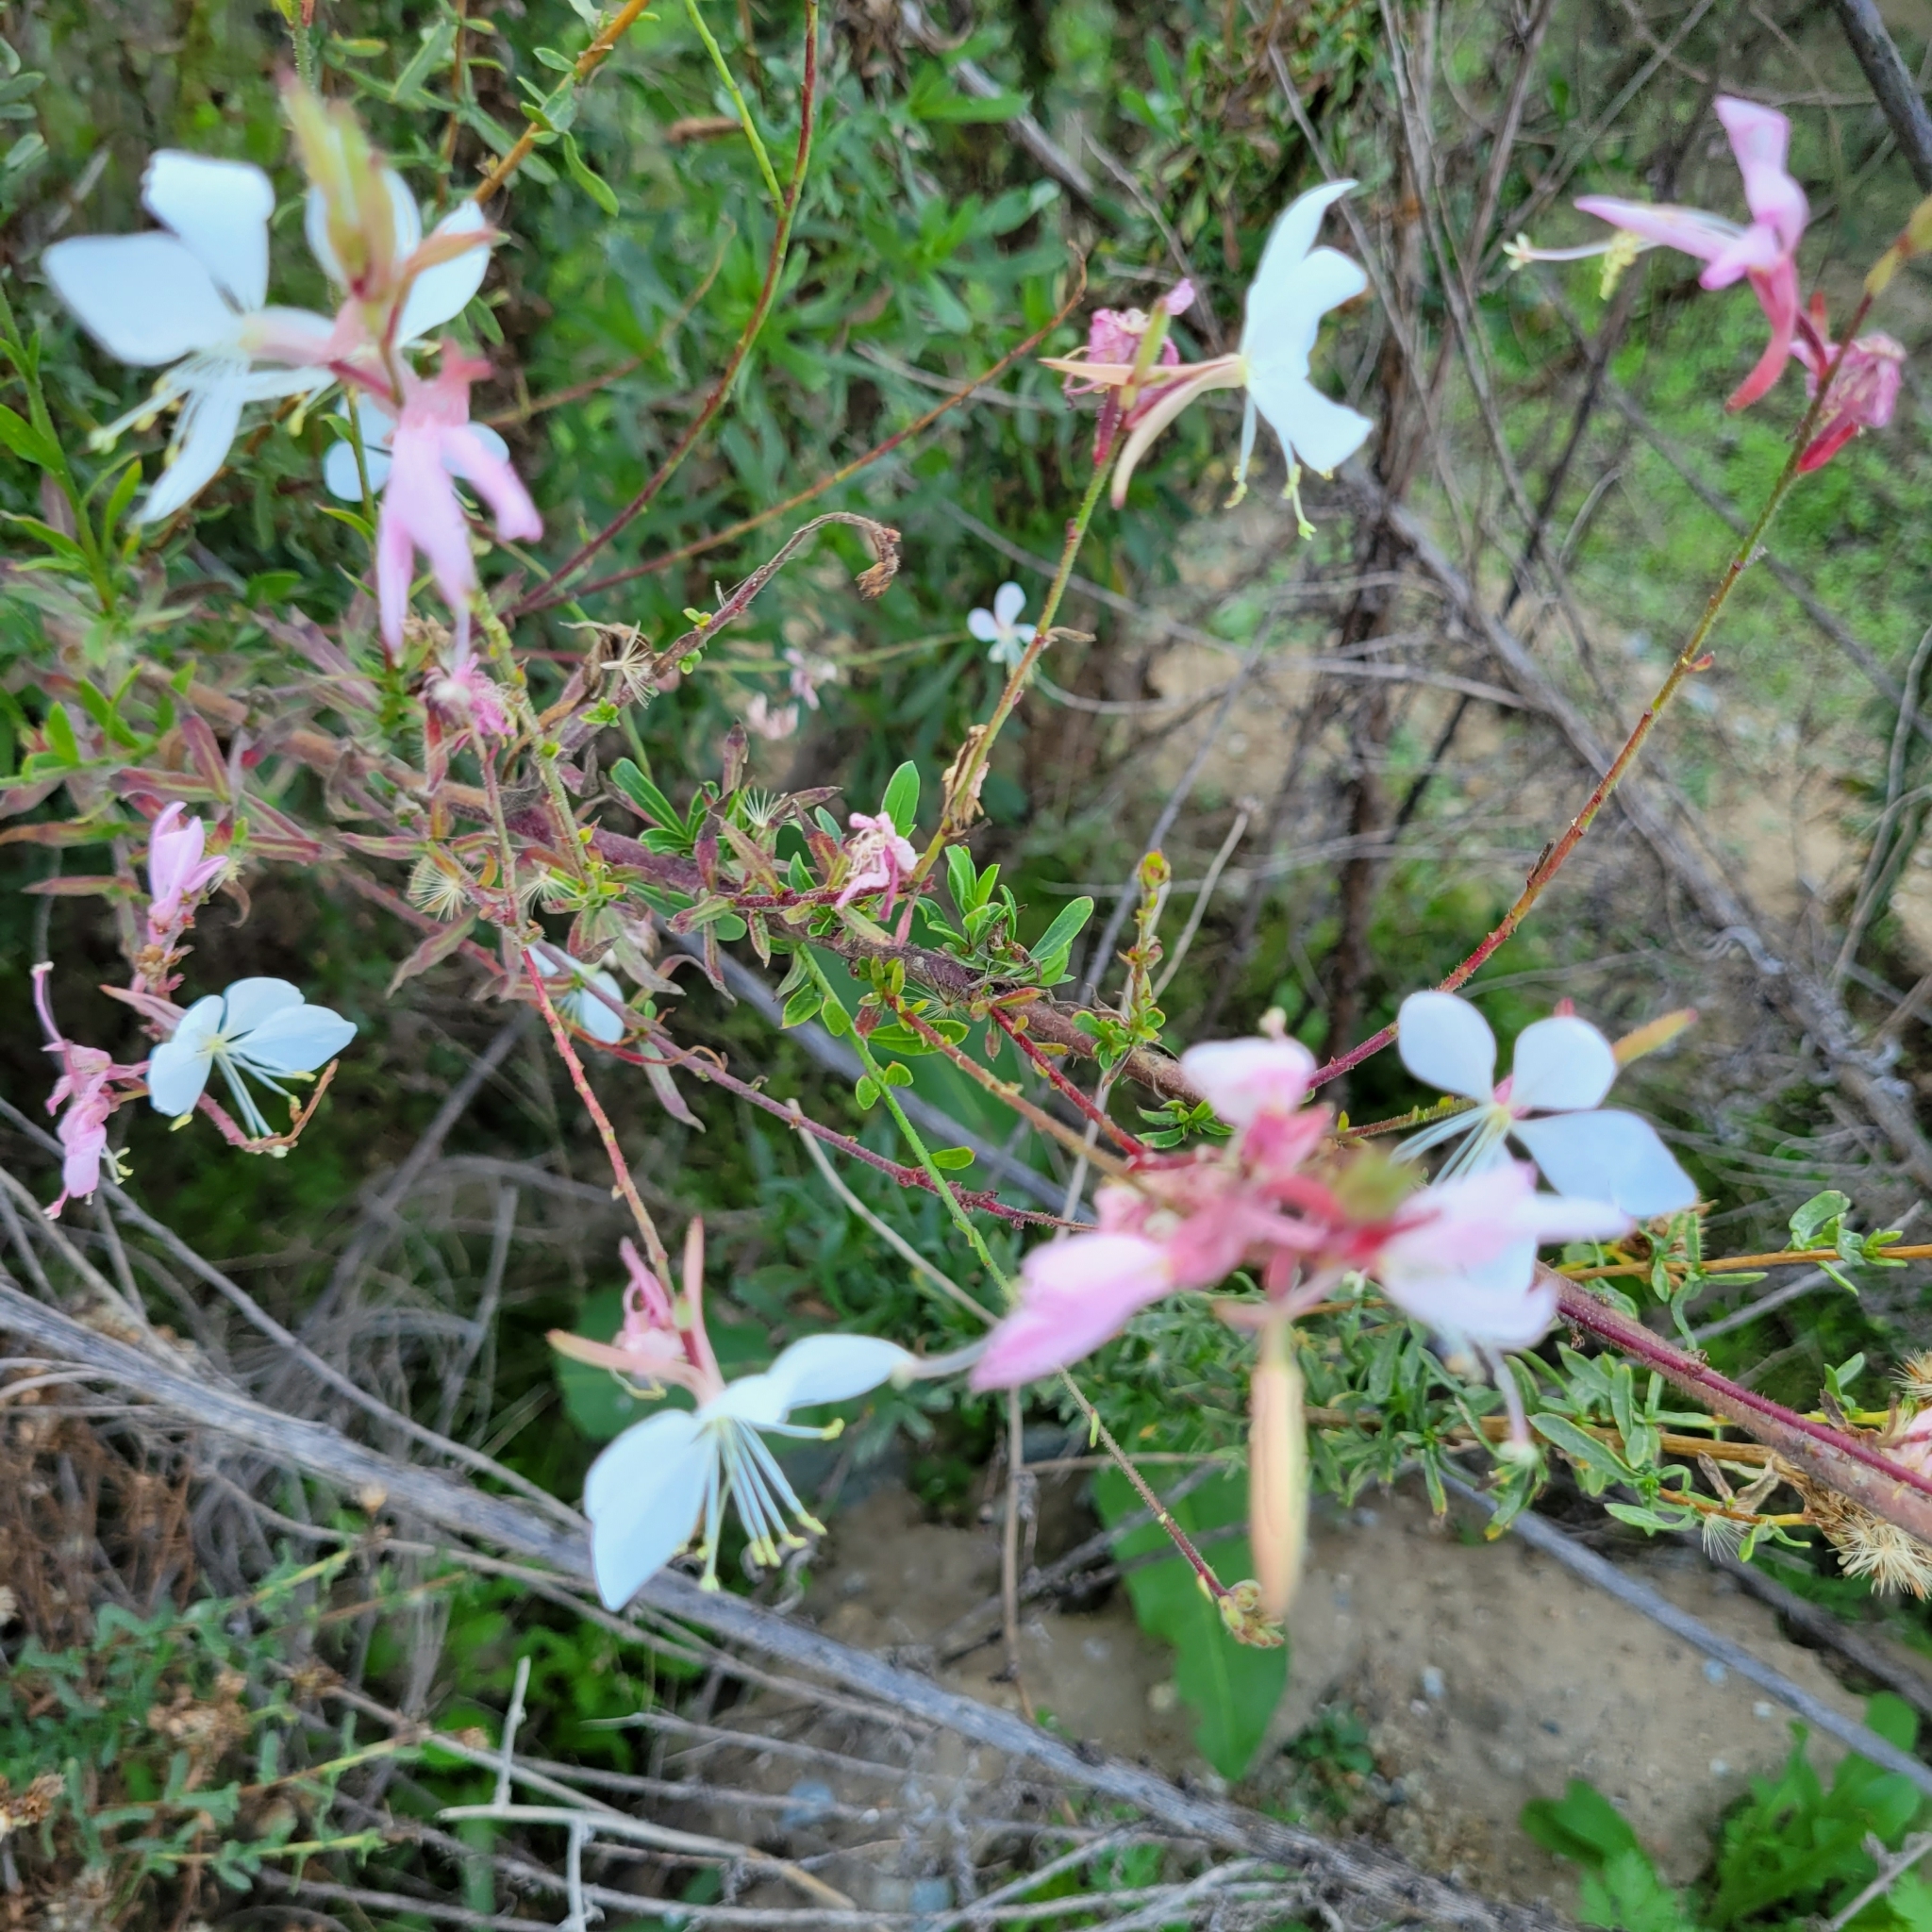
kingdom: Plantae
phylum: Tracheophyta
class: Magnoliopsida
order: Myrtales
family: Onagraceae
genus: Oenothera
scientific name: Oenothera lindheimeri
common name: Lindheimer's beeblossom
